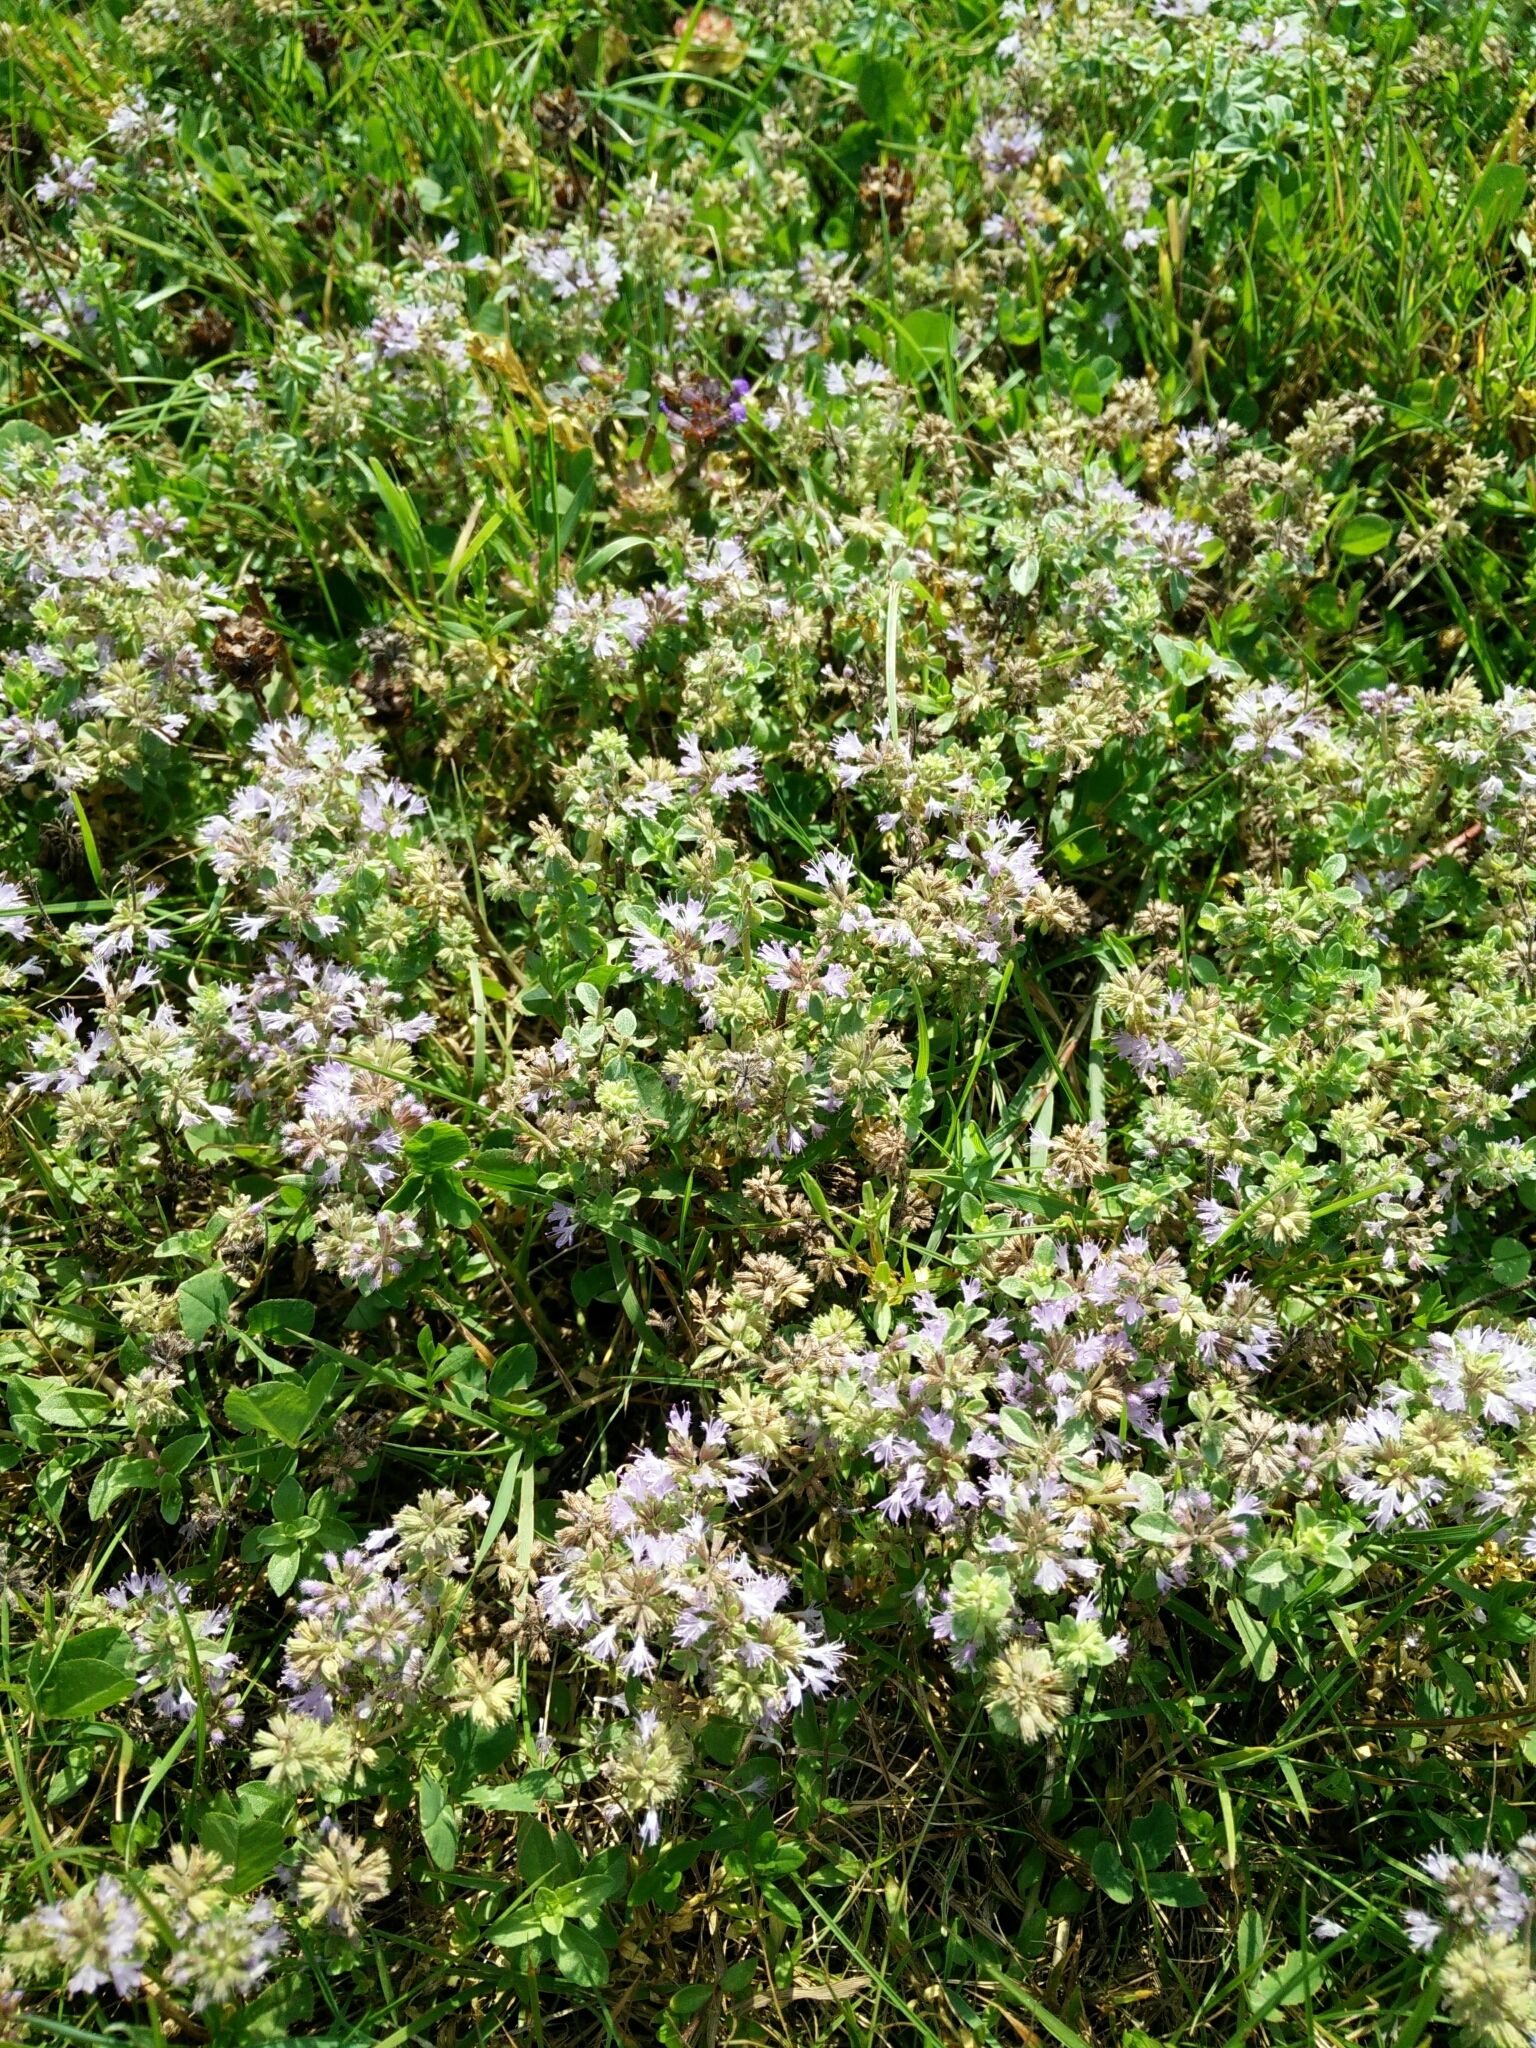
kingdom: Plantae
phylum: Tracheophyta
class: Magnoliopsida
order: Lamiales
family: Lamiaceae
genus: Mentha
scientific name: Mentha pulegium
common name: Pennyroyal
